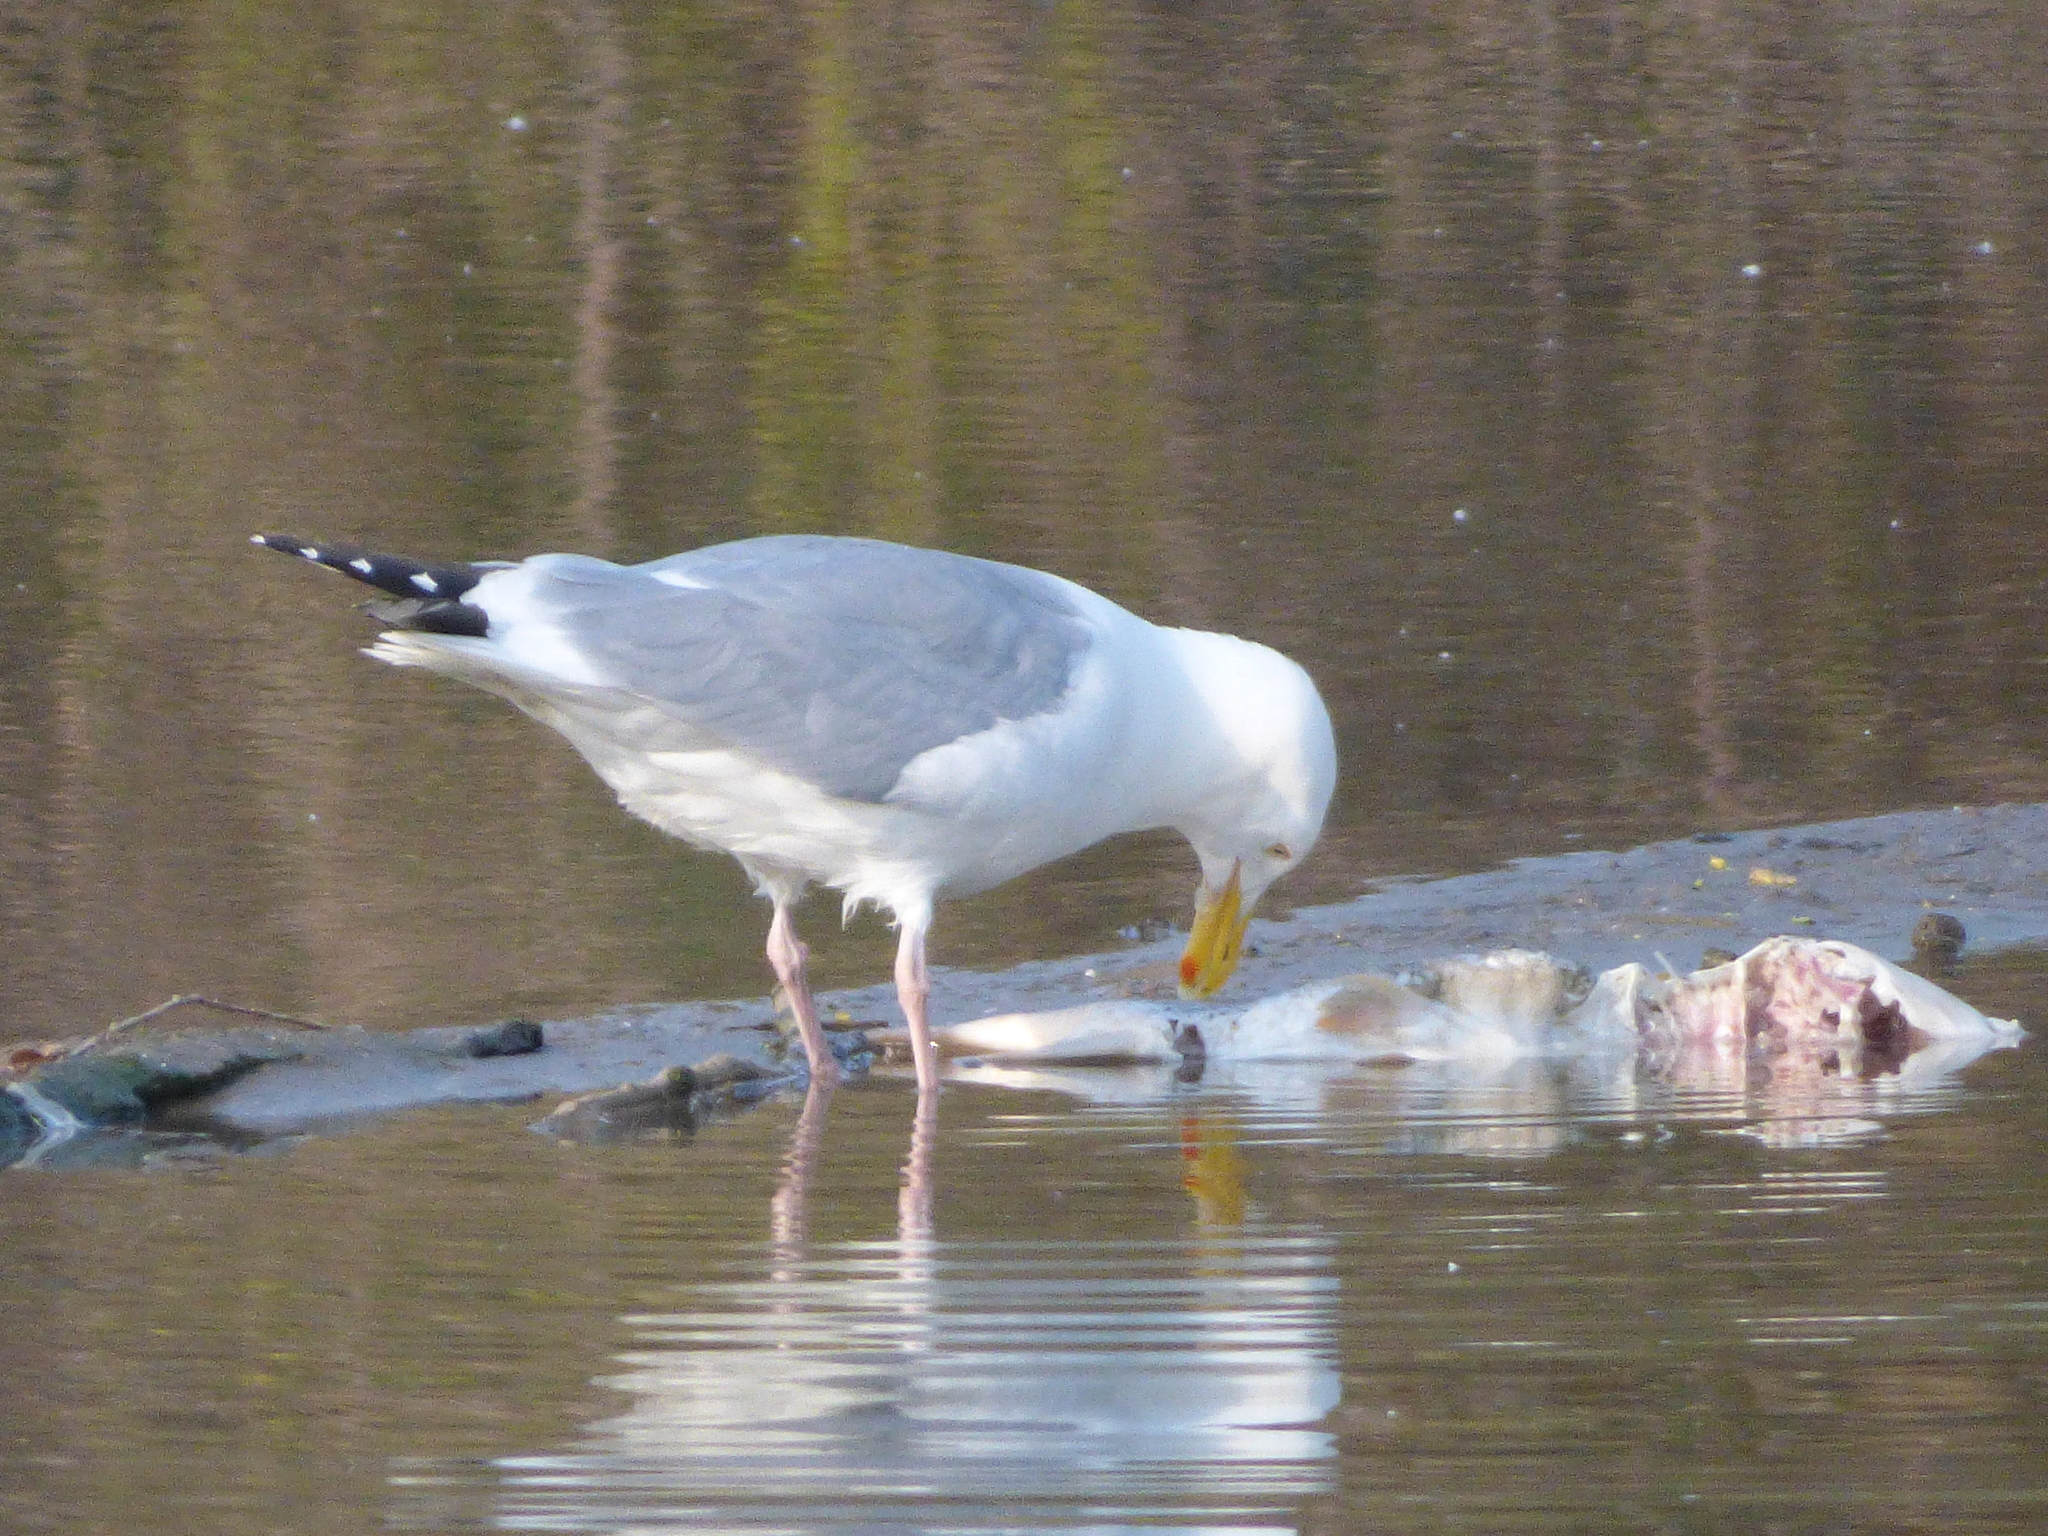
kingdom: Animalia
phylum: Chordata
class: Aves
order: Charadriiformes
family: Laridae
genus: Larus
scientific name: Larus argentatus
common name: Herring gull
